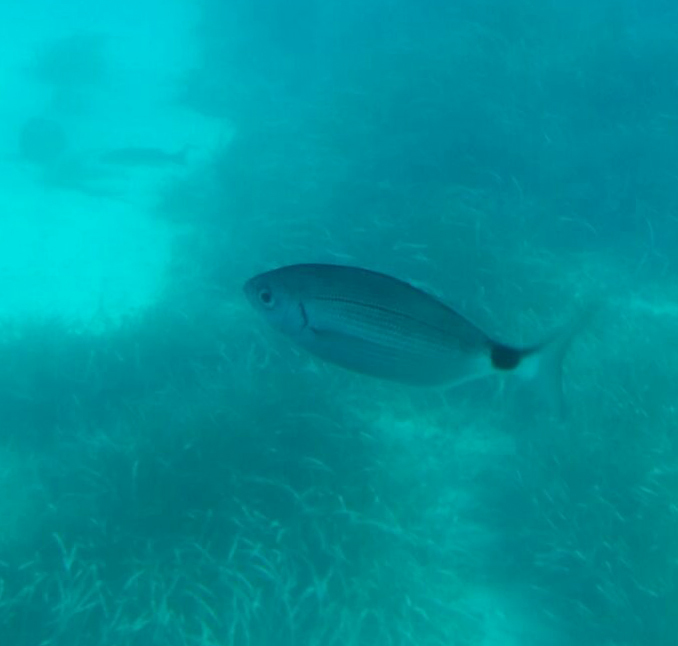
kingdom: Animalia
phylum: Chordata
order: Perciformes
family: Sparidae
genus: Oblada
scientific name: Oblada melanura
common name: Saddled seabream
